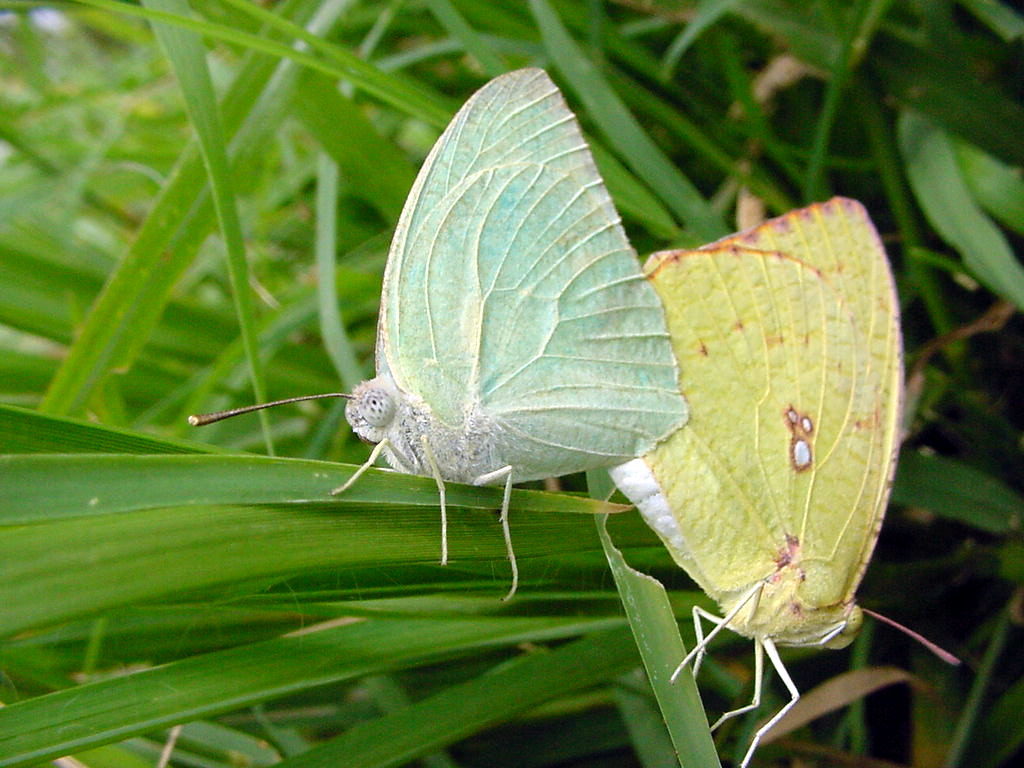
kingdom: Animalia
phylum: Arthropoda
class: Insecta
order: Lepidoptera
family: Pieridae
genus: Catopsilia
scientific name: Catopsilia pyranthe
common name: Mottled emigrant
